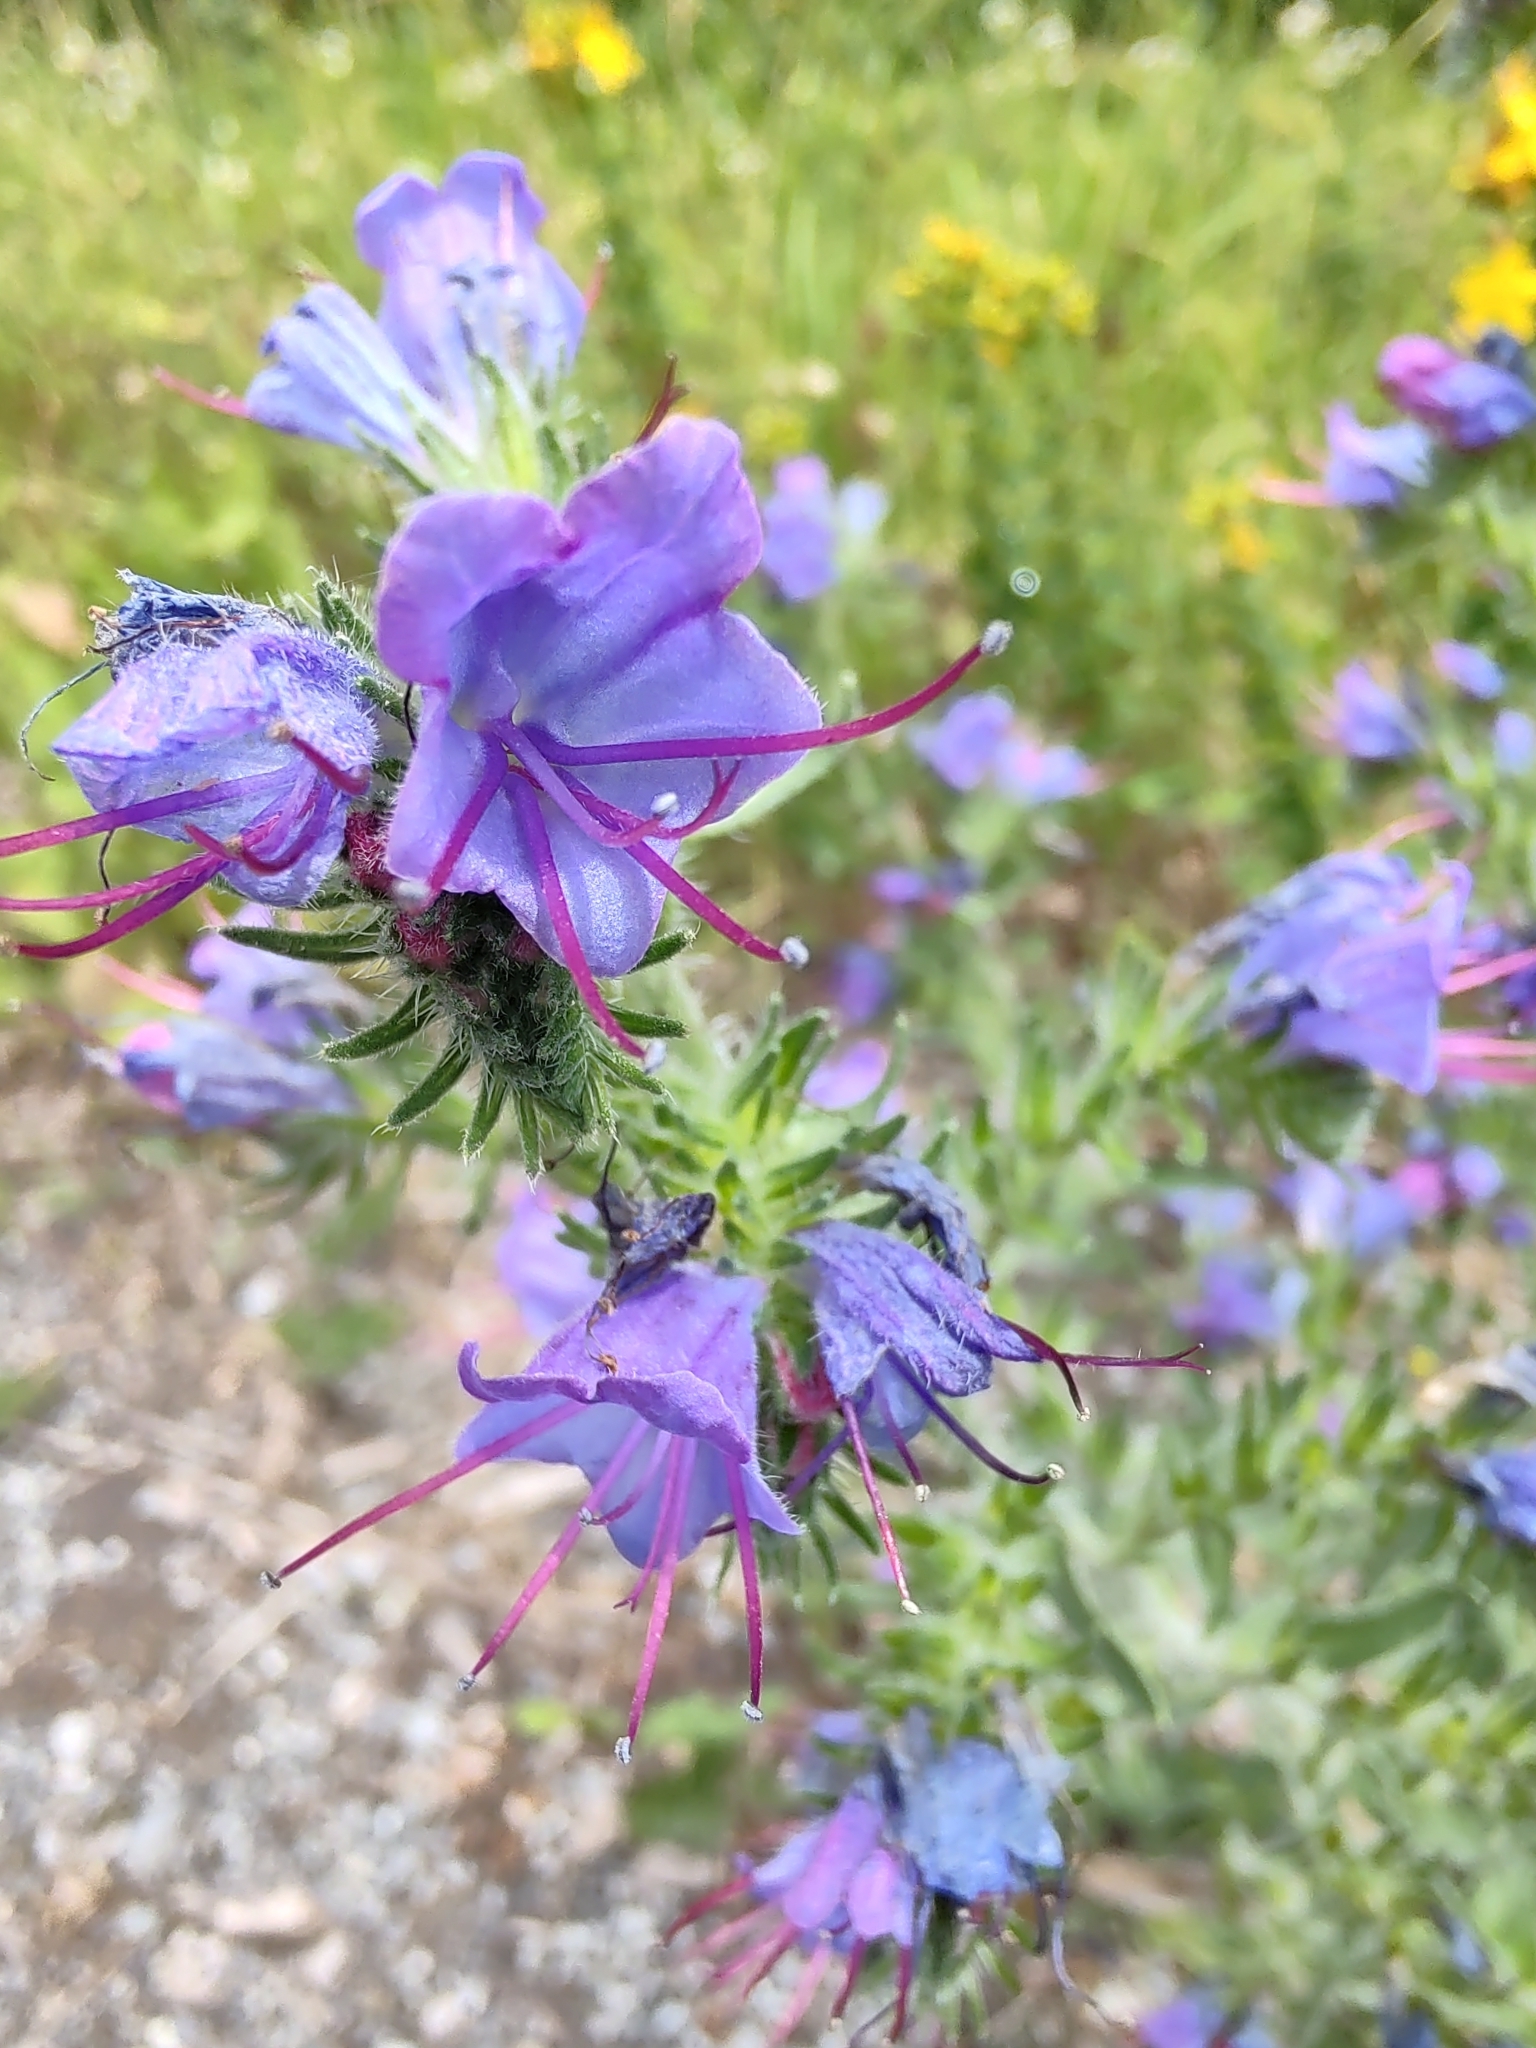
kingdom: Plantae
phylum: Tracheophyta
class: Magnoliopsida
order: Boraginales
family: Boraginaceae
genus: Echium
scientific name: Echium vulgare
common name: Common viper's bugloss
